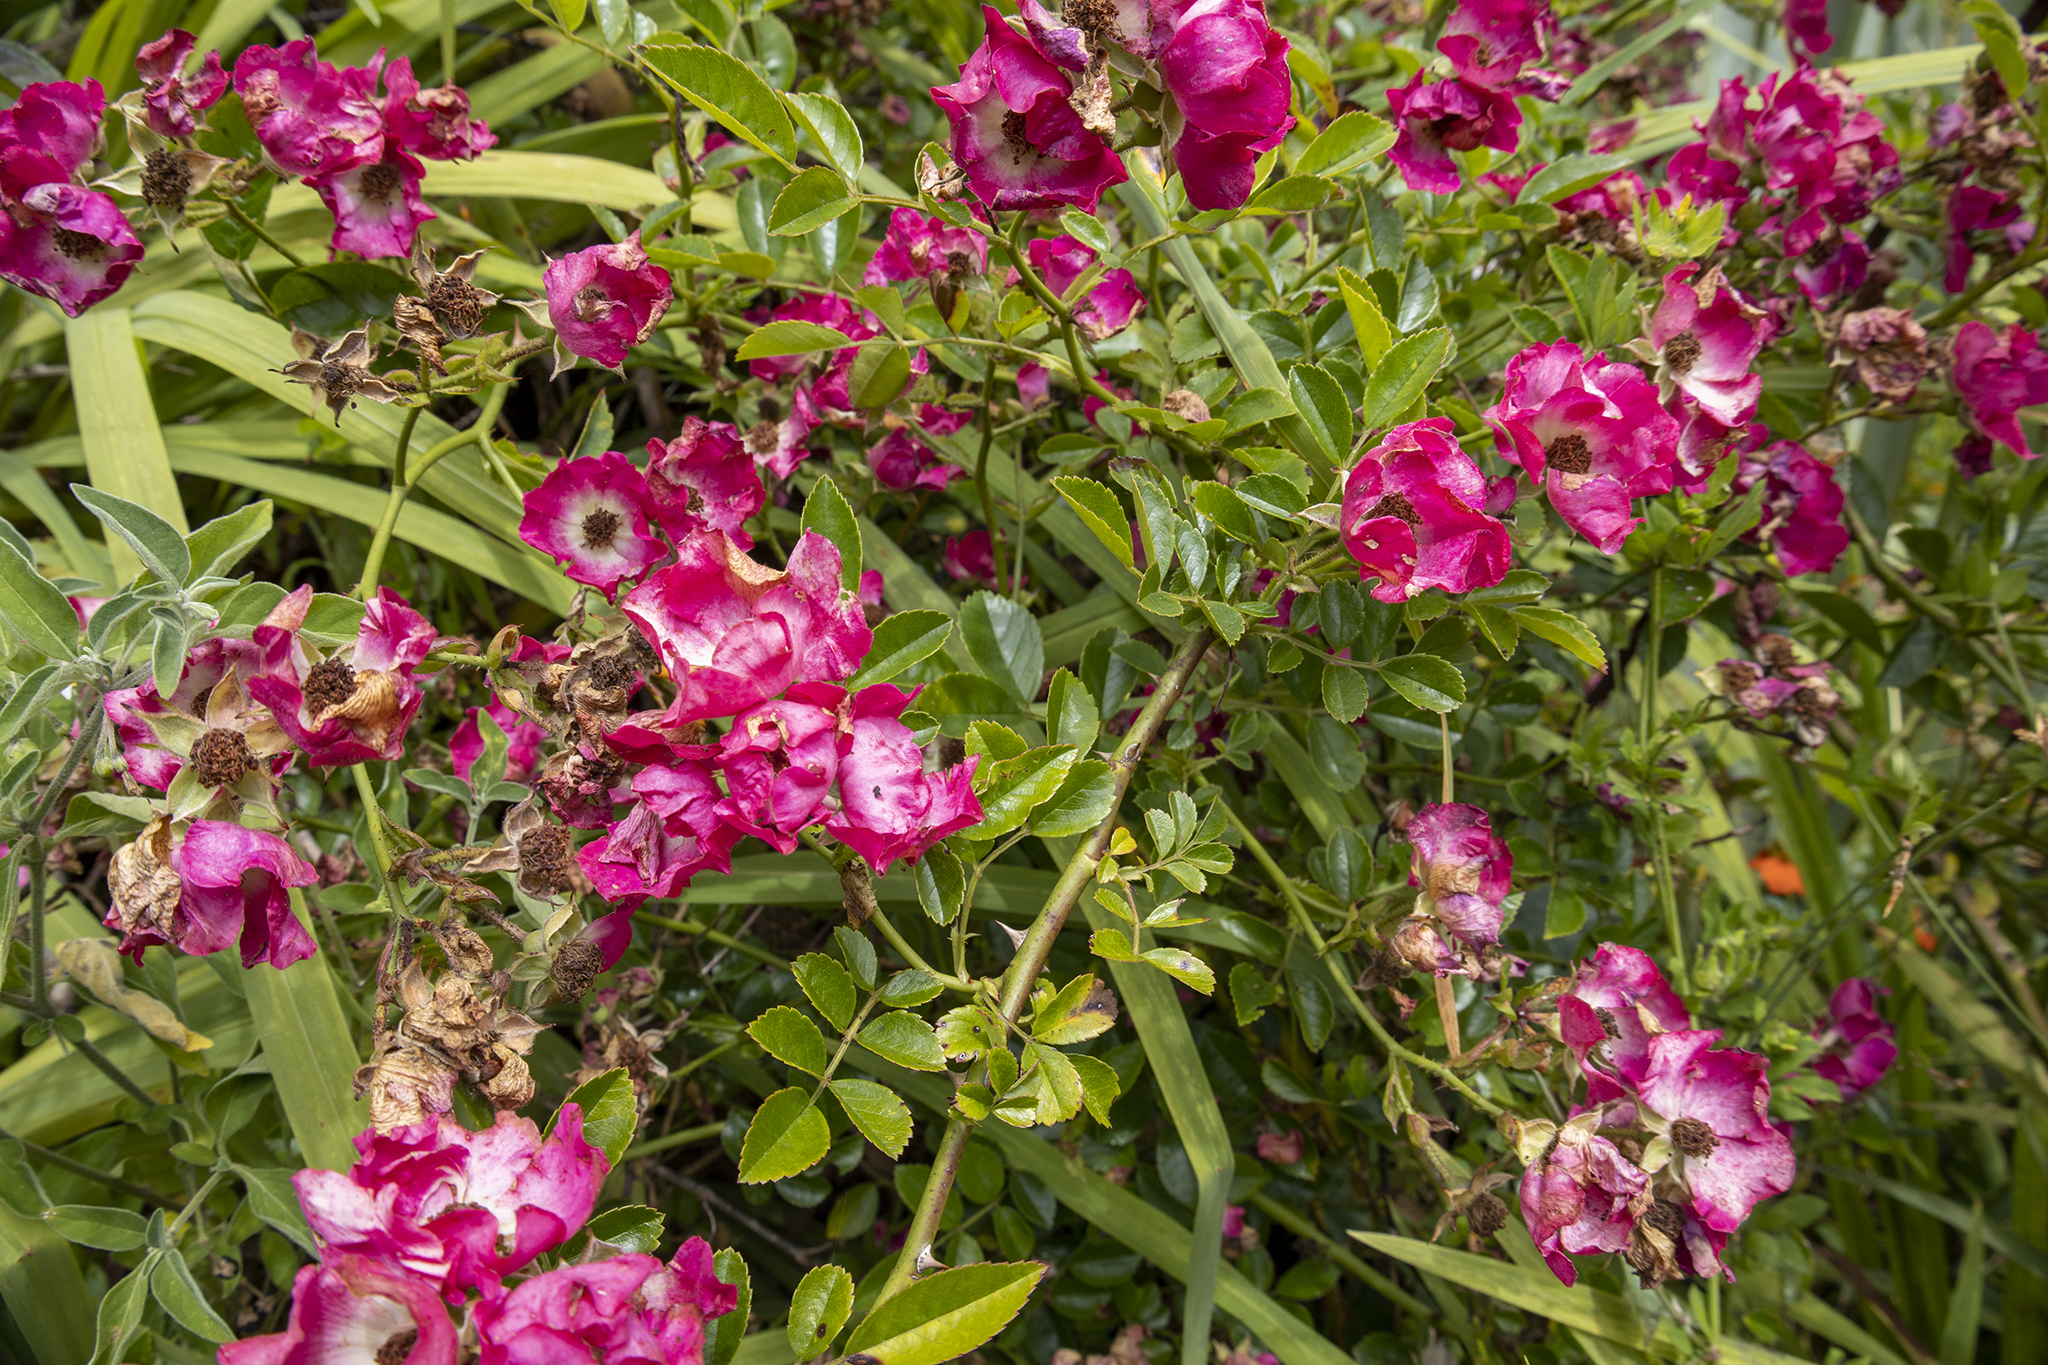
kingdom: Plantae
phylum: Tracheophyta
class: Magnoliopsida
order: Rosales
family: Rosaceae
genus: Rosa
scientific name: Rosa
